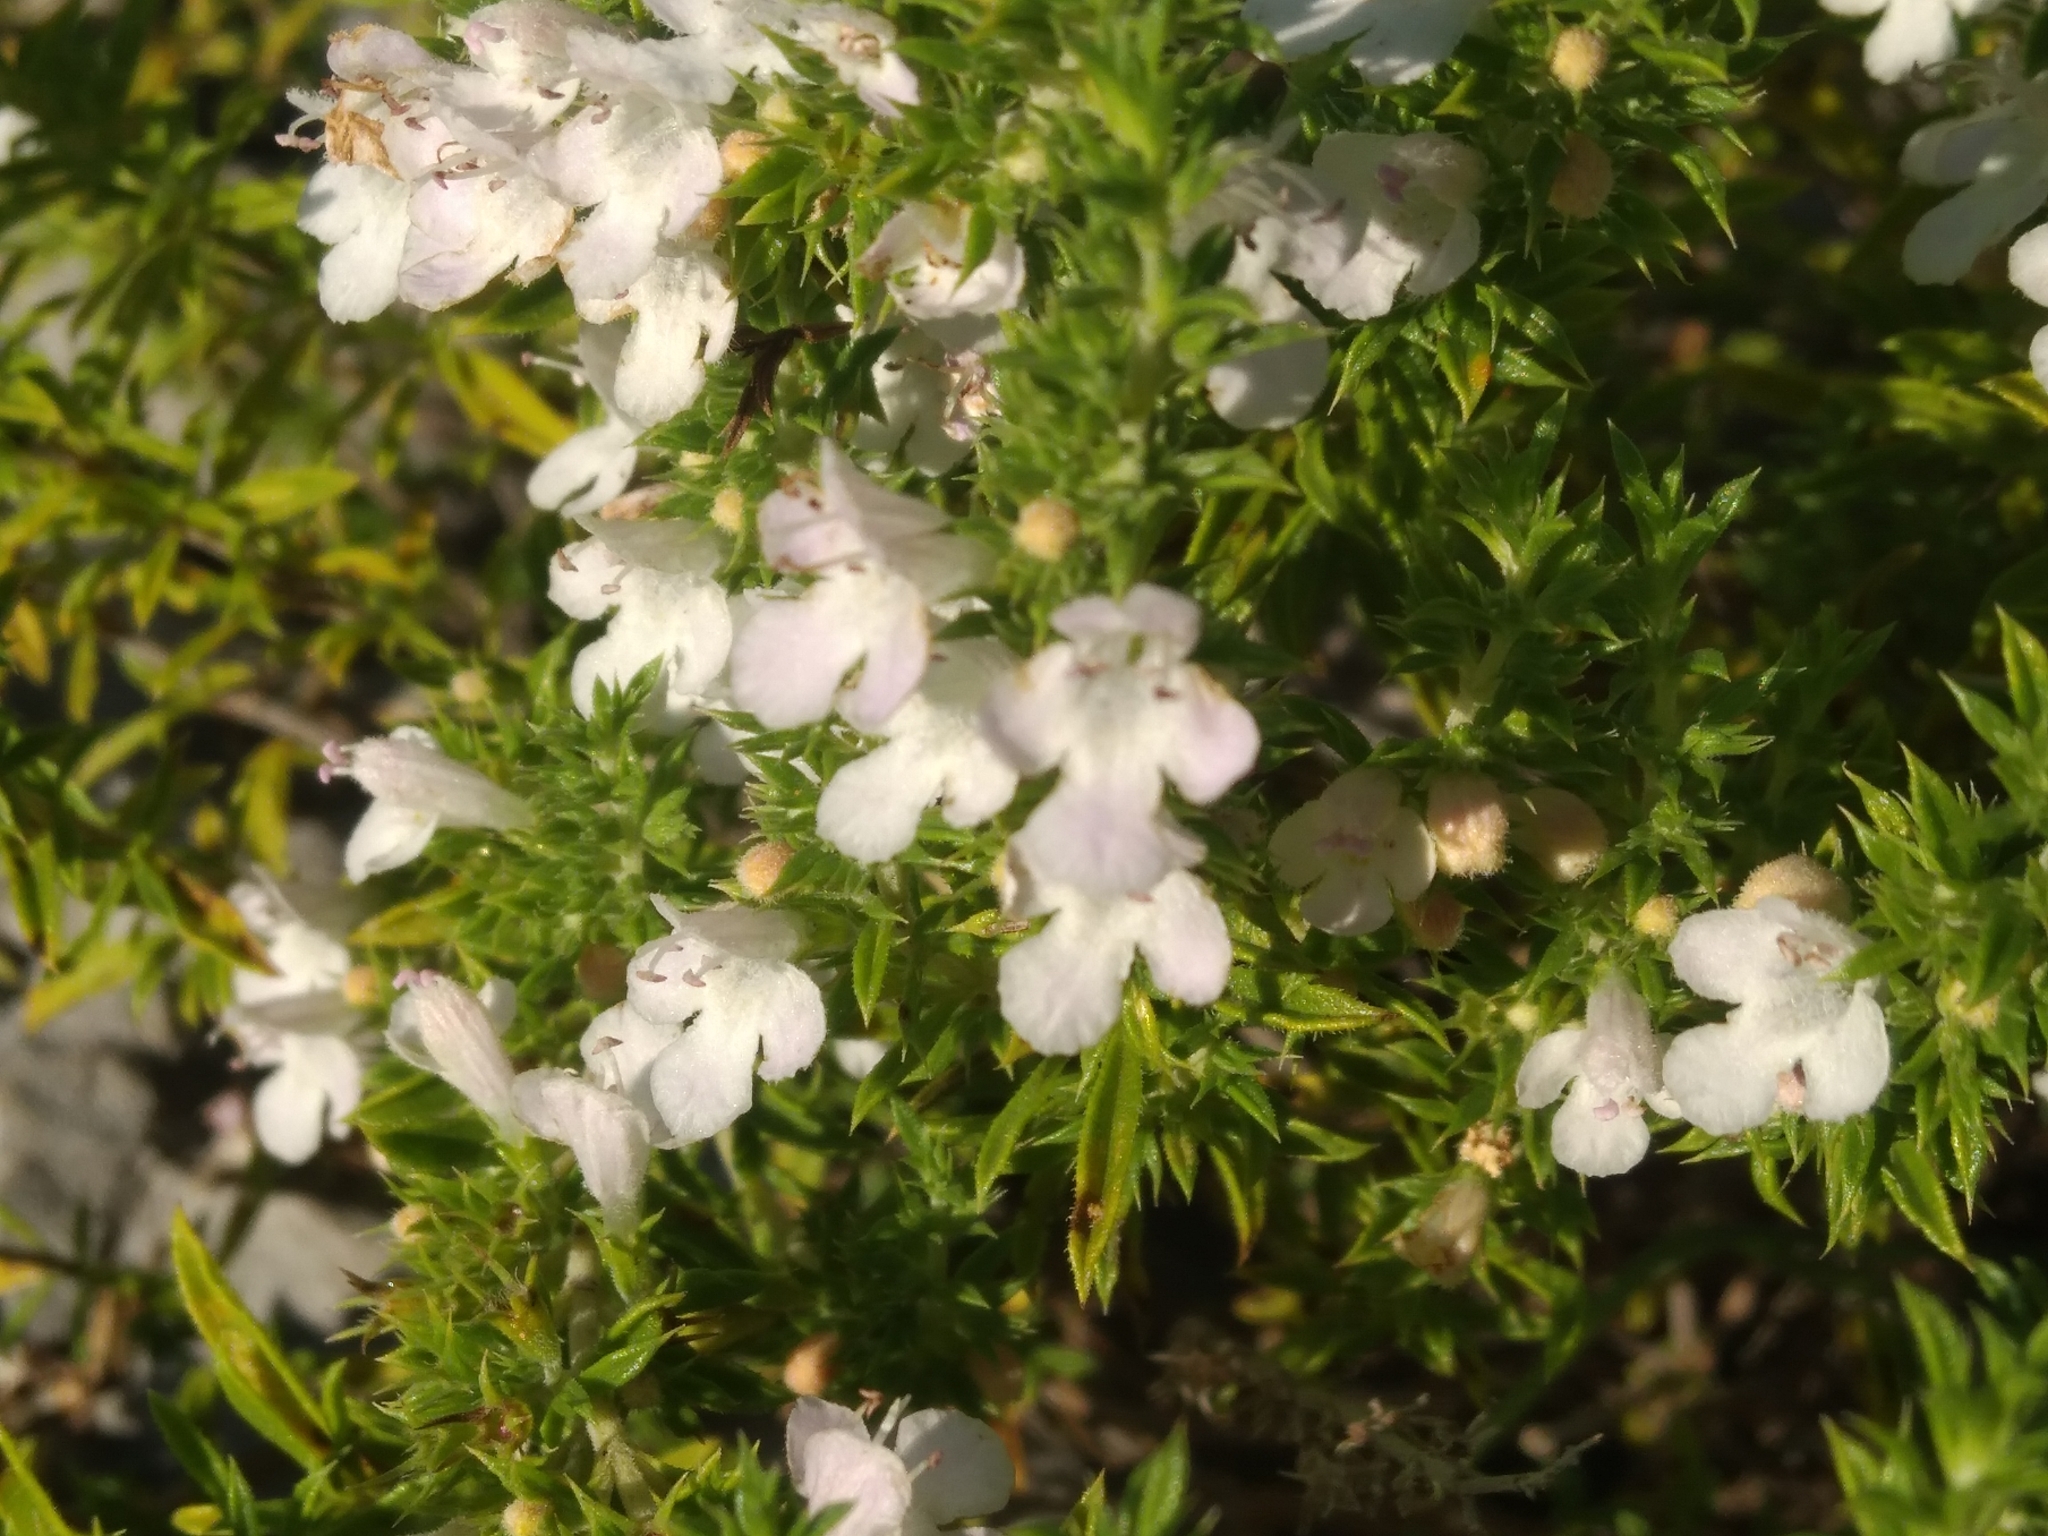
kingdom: Plantae
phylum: Tracheophyta
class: Magnoliopsida
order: Lamiales
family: Lamiaceae
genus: Satureja
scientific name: Satureja montana
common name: Winter savory
